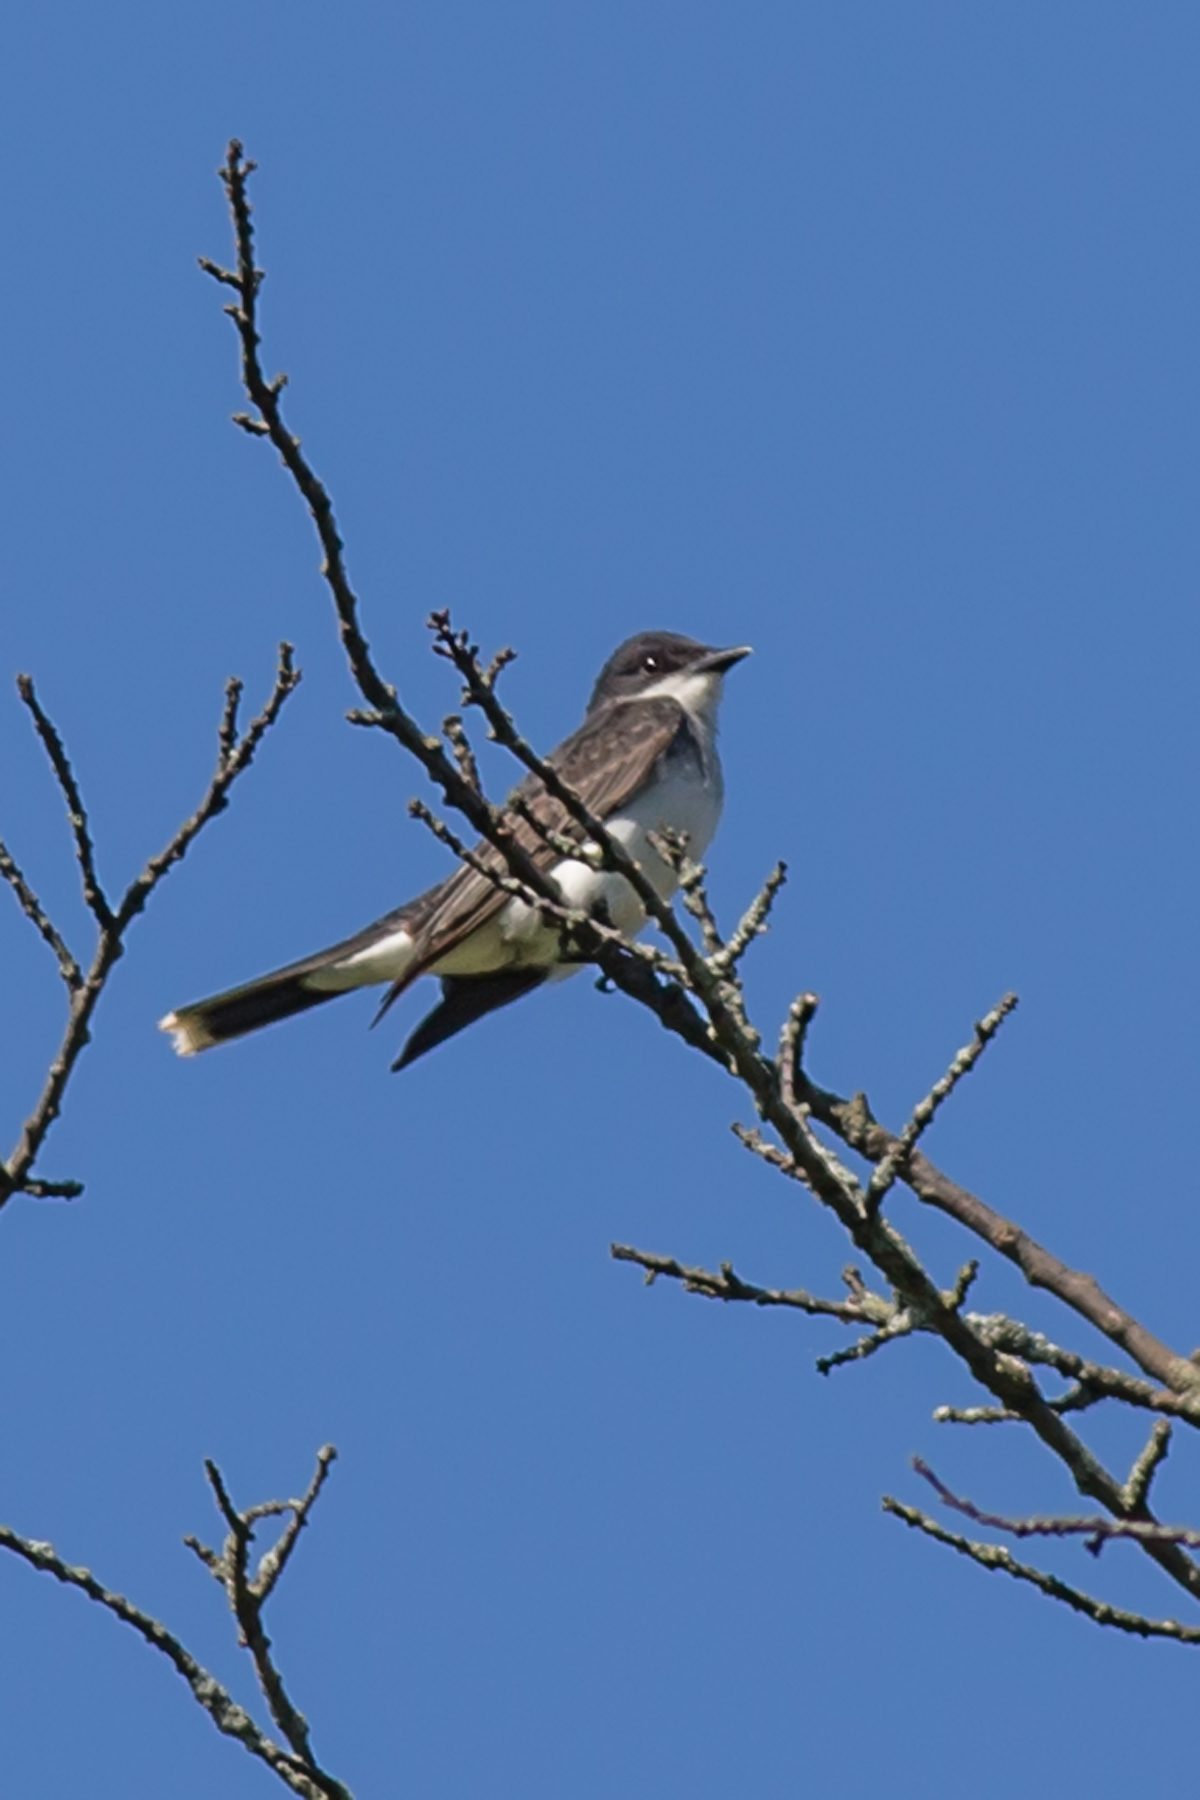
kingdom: Animalia
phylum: Chordata
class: Aves
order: Passeriformes
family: Tyrannidae
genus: Tyrannus
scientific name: Tyrannus tyrannus
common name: Eastern kingbird
